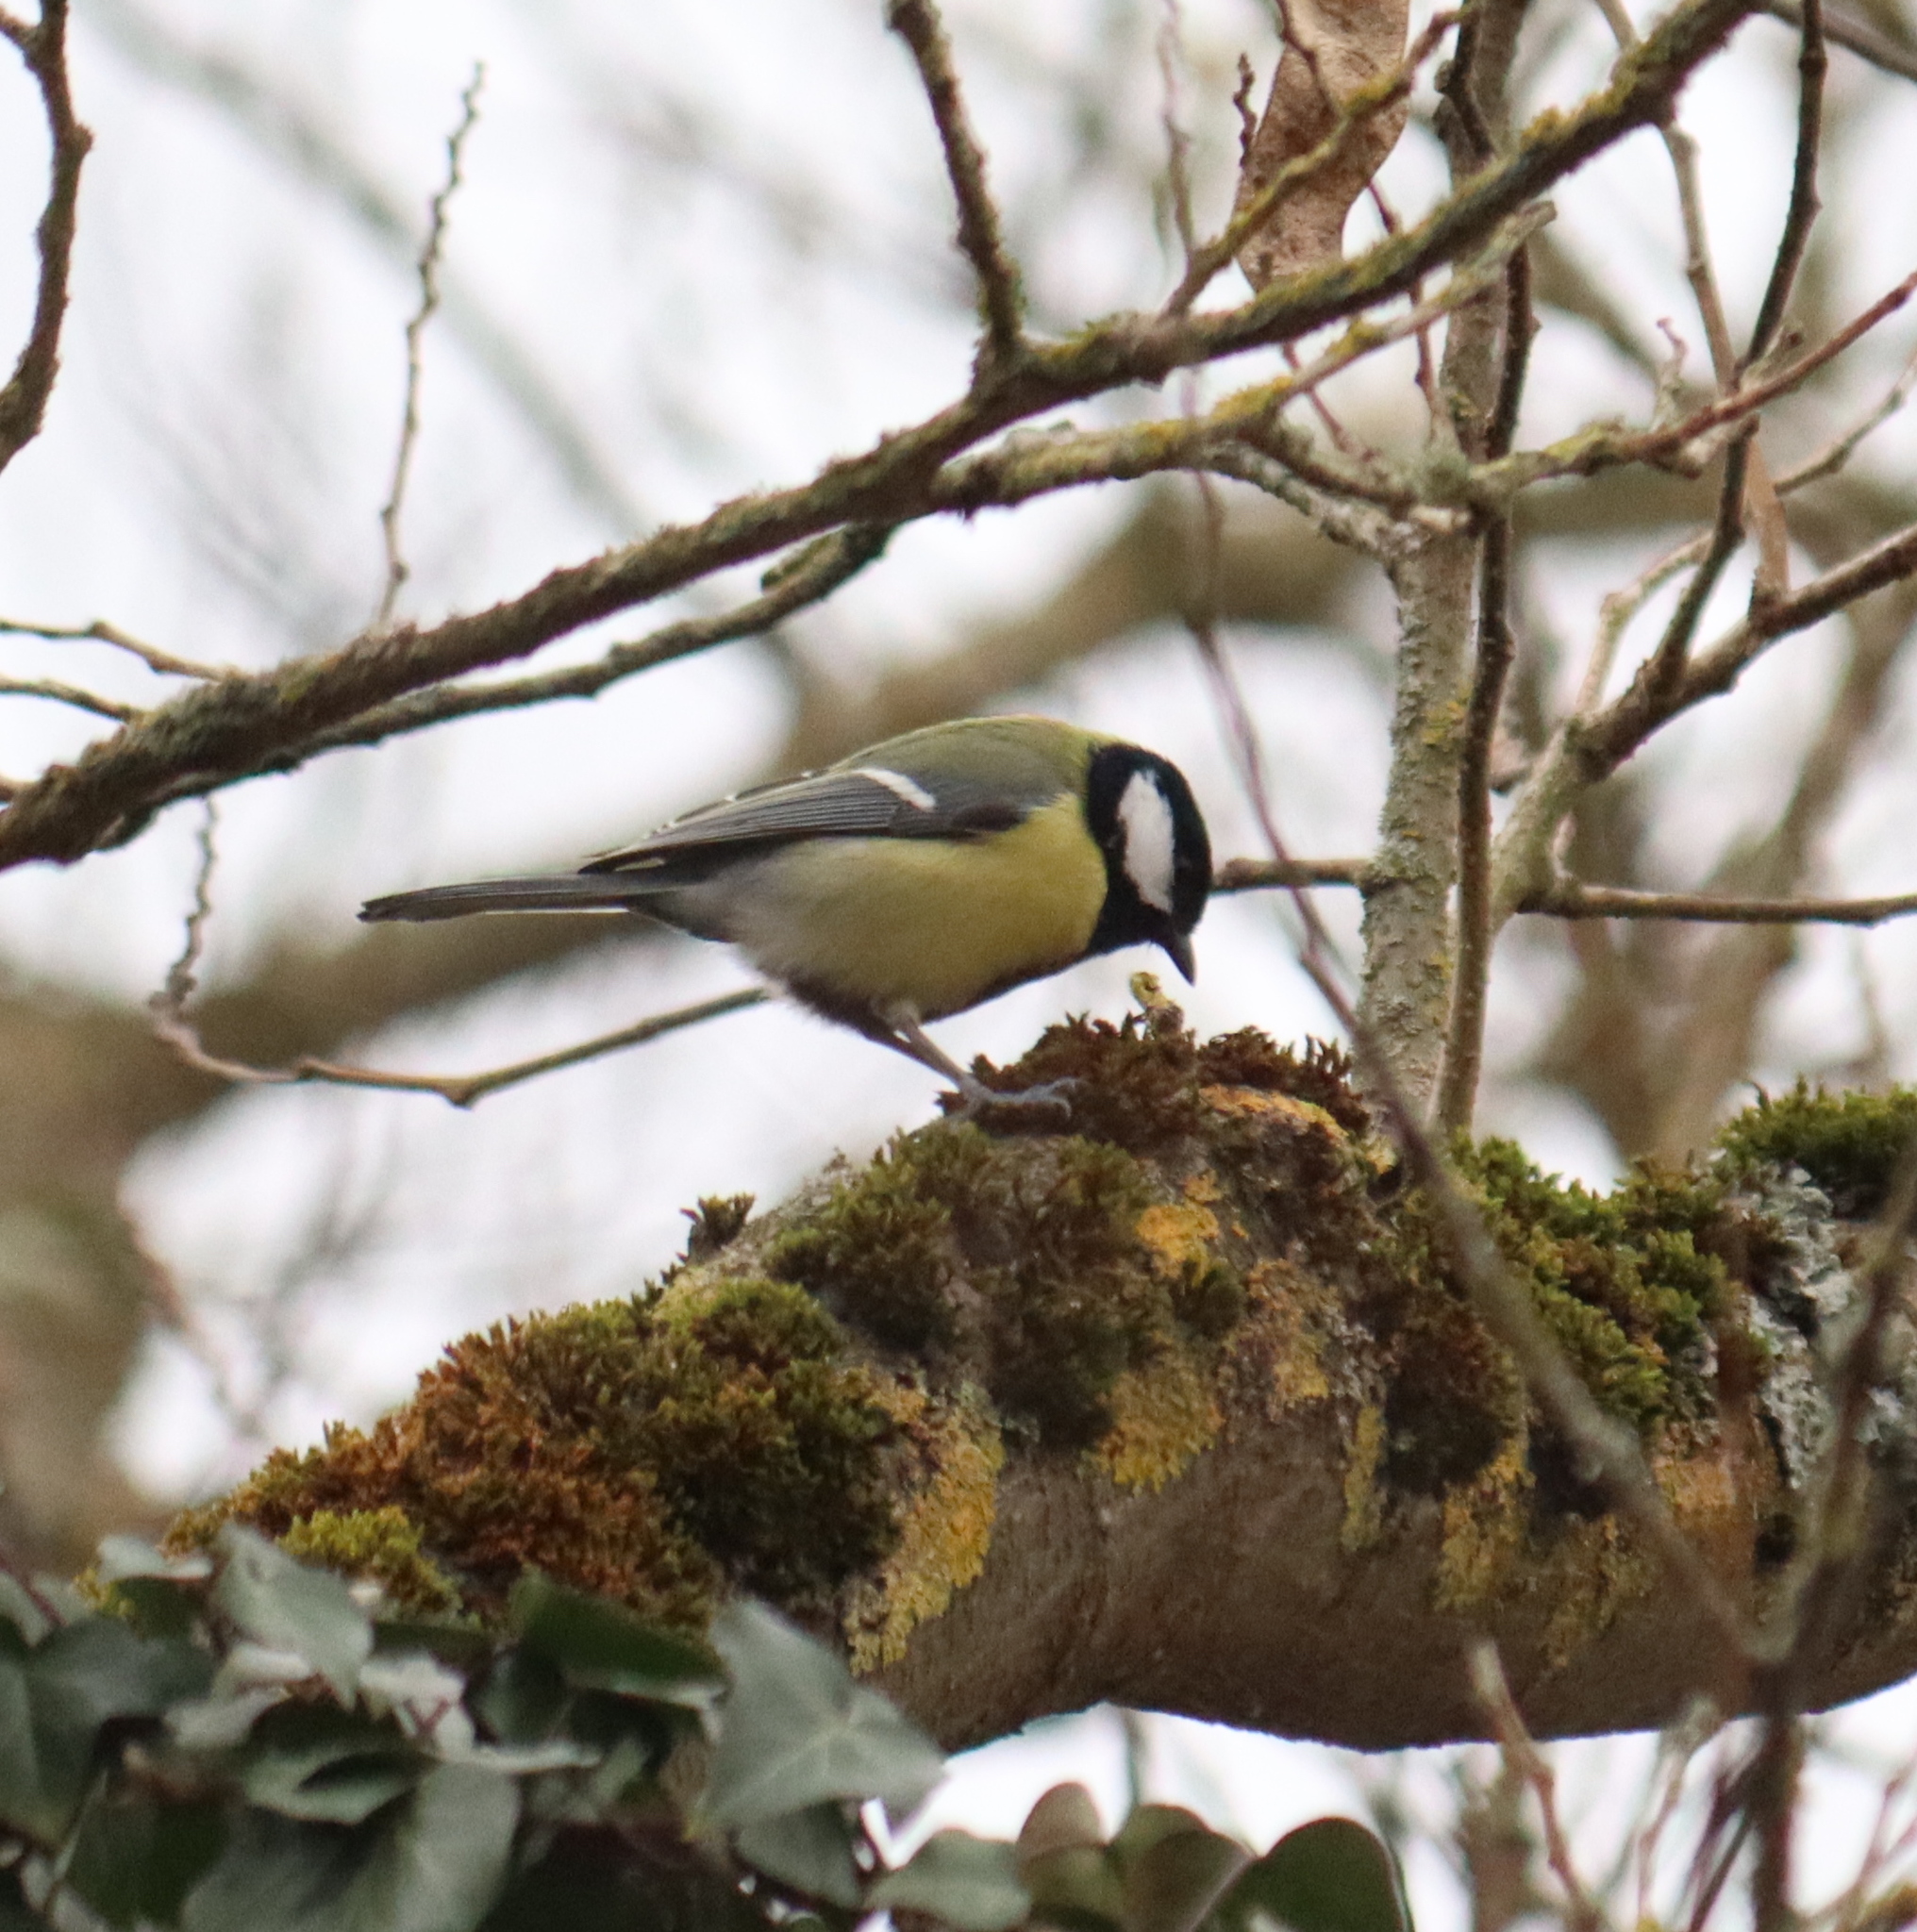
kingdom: Animalia
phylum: Chordata
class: Aves
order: Passeriformes
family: Paridae
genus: Parus
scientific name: Parus major
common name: Great tit
